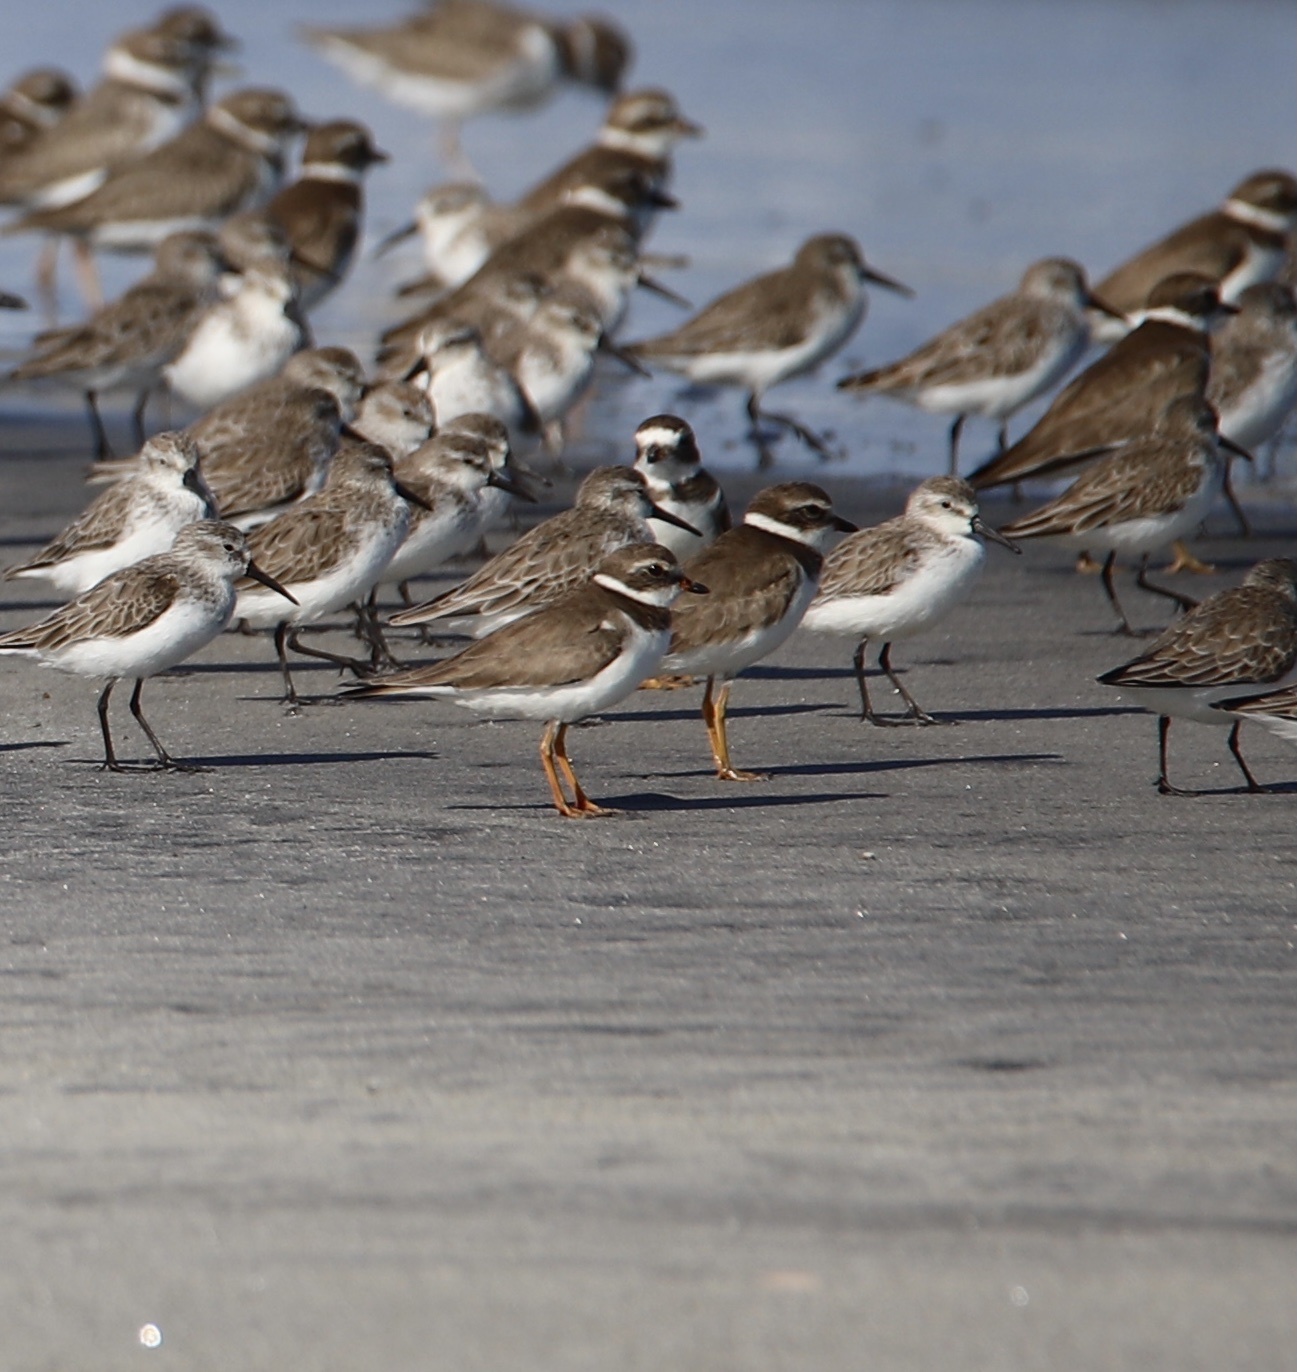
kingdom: Animalia
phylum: Chordata
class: Aves
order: Charadriiformes
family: Charadriidae
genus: Charadrius
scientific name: Charadrius semipalmatus
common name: Semipalmated plover
